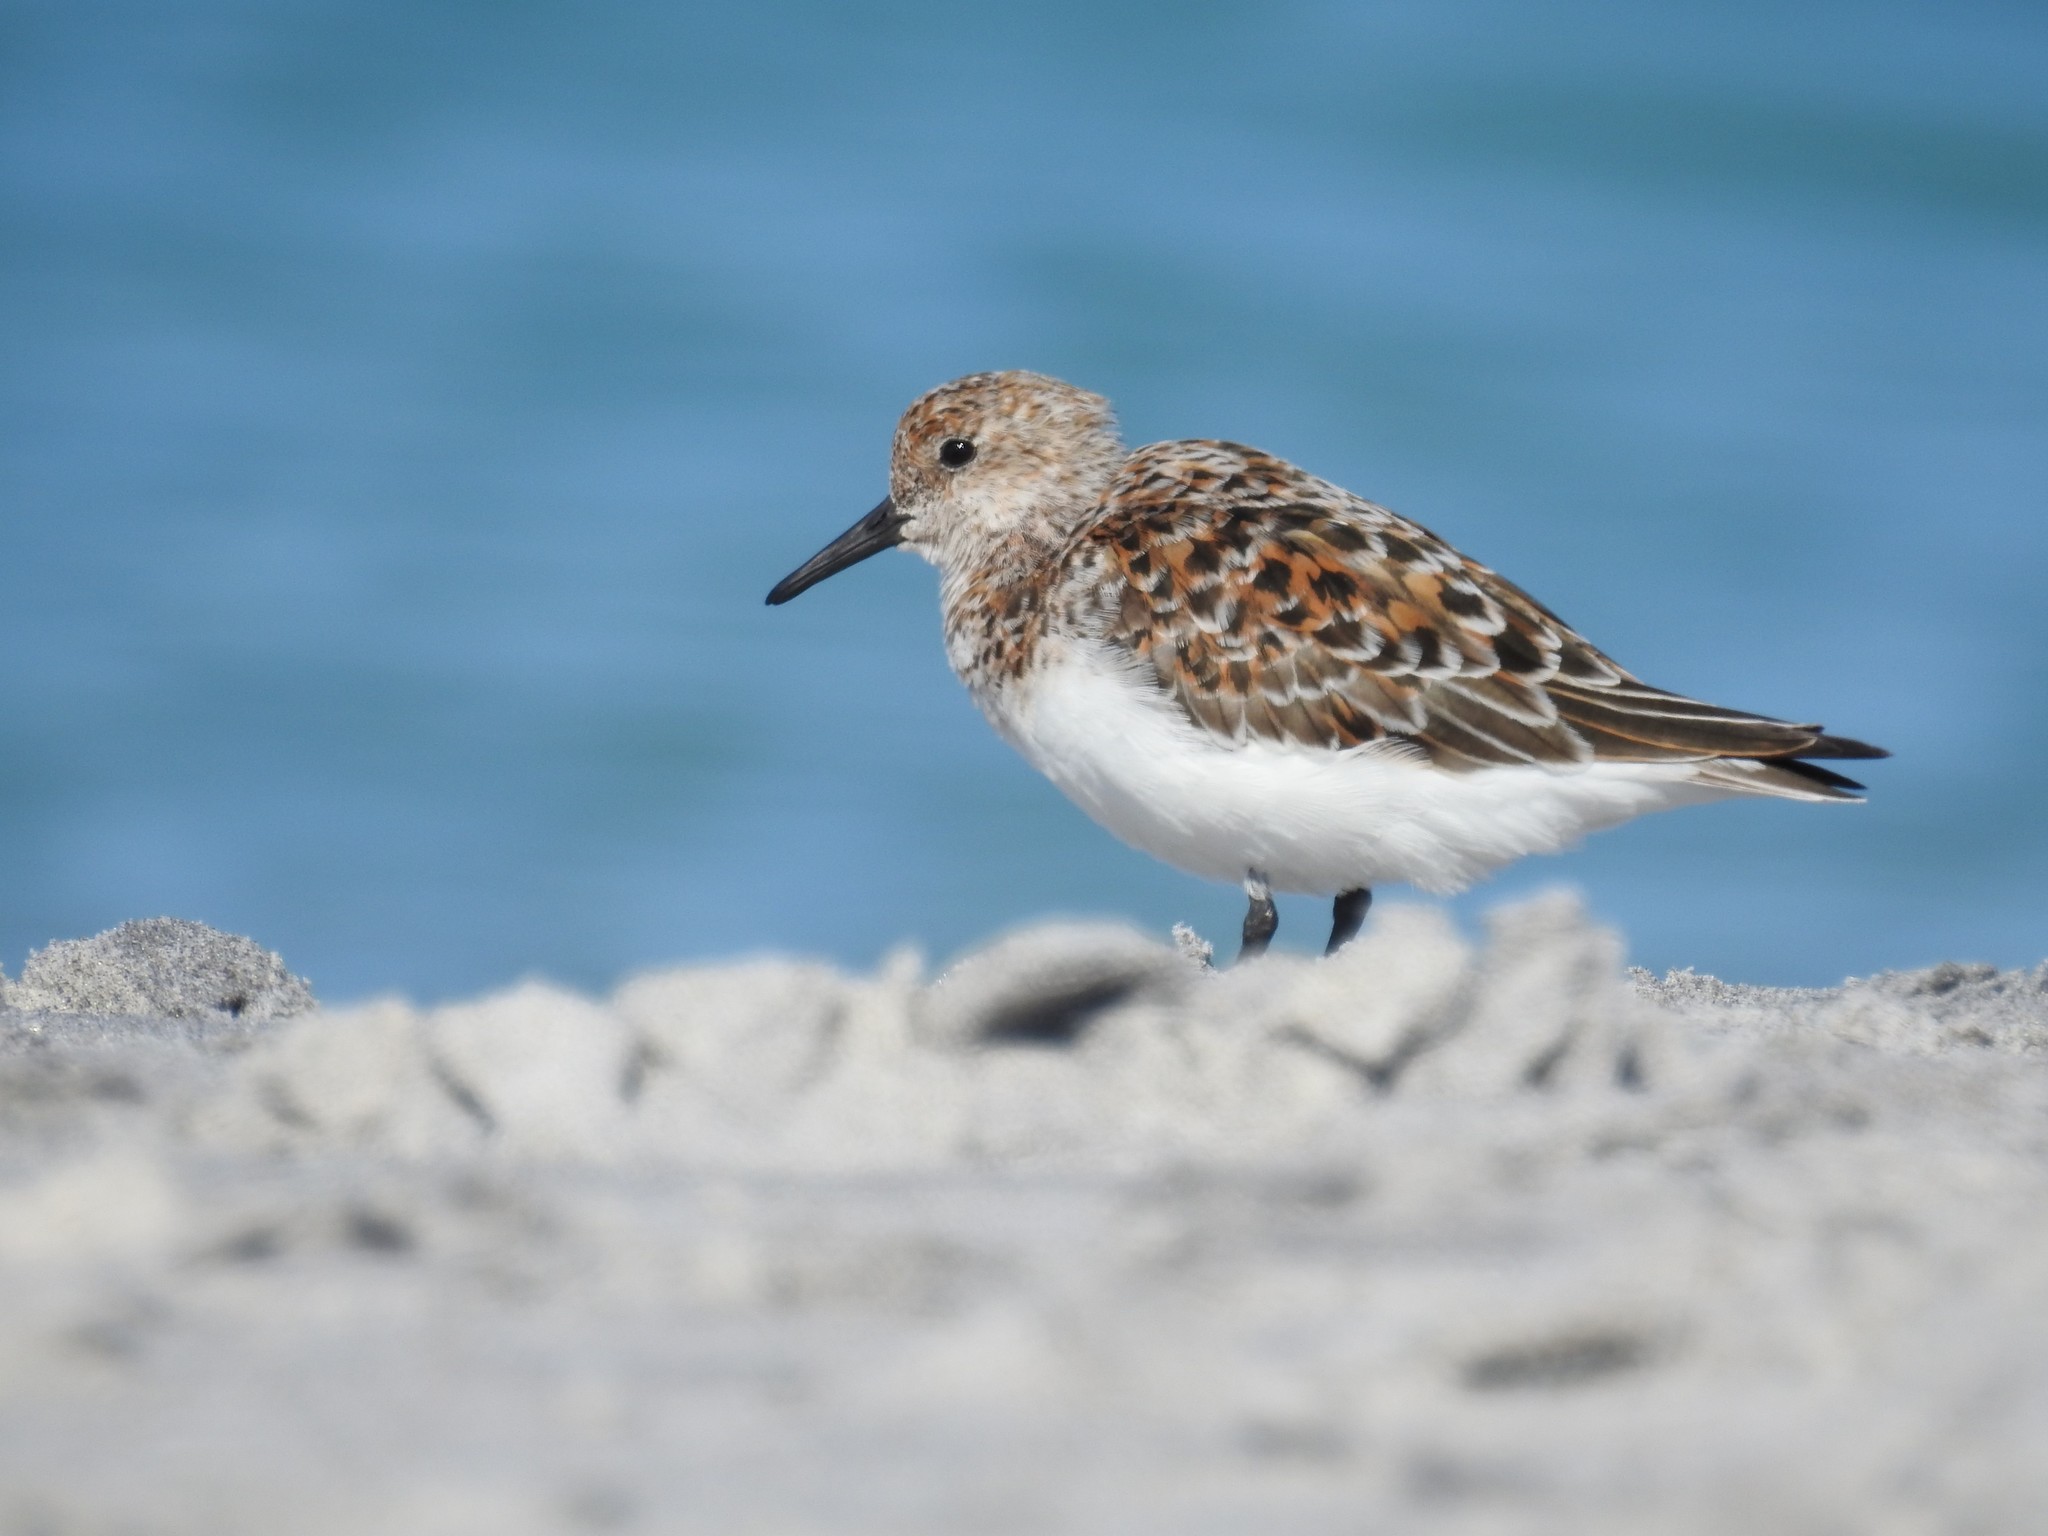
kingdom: Animalia
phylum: Chordata
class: Aves
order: Charadriiformes
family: Scolopacidae
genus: Calidris
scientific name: Calidris alba
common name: Sanderling
